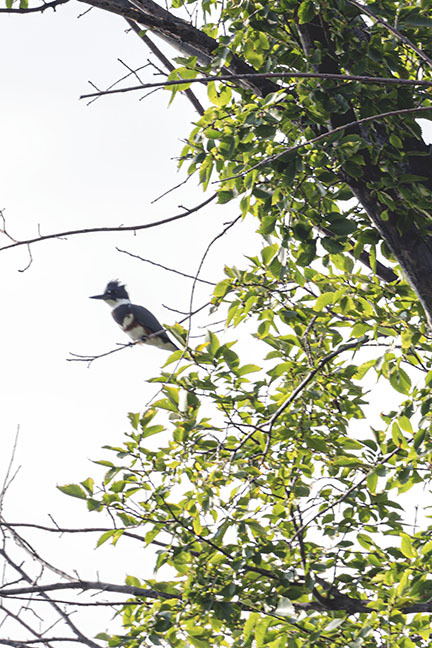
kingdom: Animalia
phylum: Chordata
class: Aves
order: Coraciiformes
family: Alcedinidae
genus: Megaceryle
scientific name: Megaceryle alcyon
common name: Belted kingfisher
